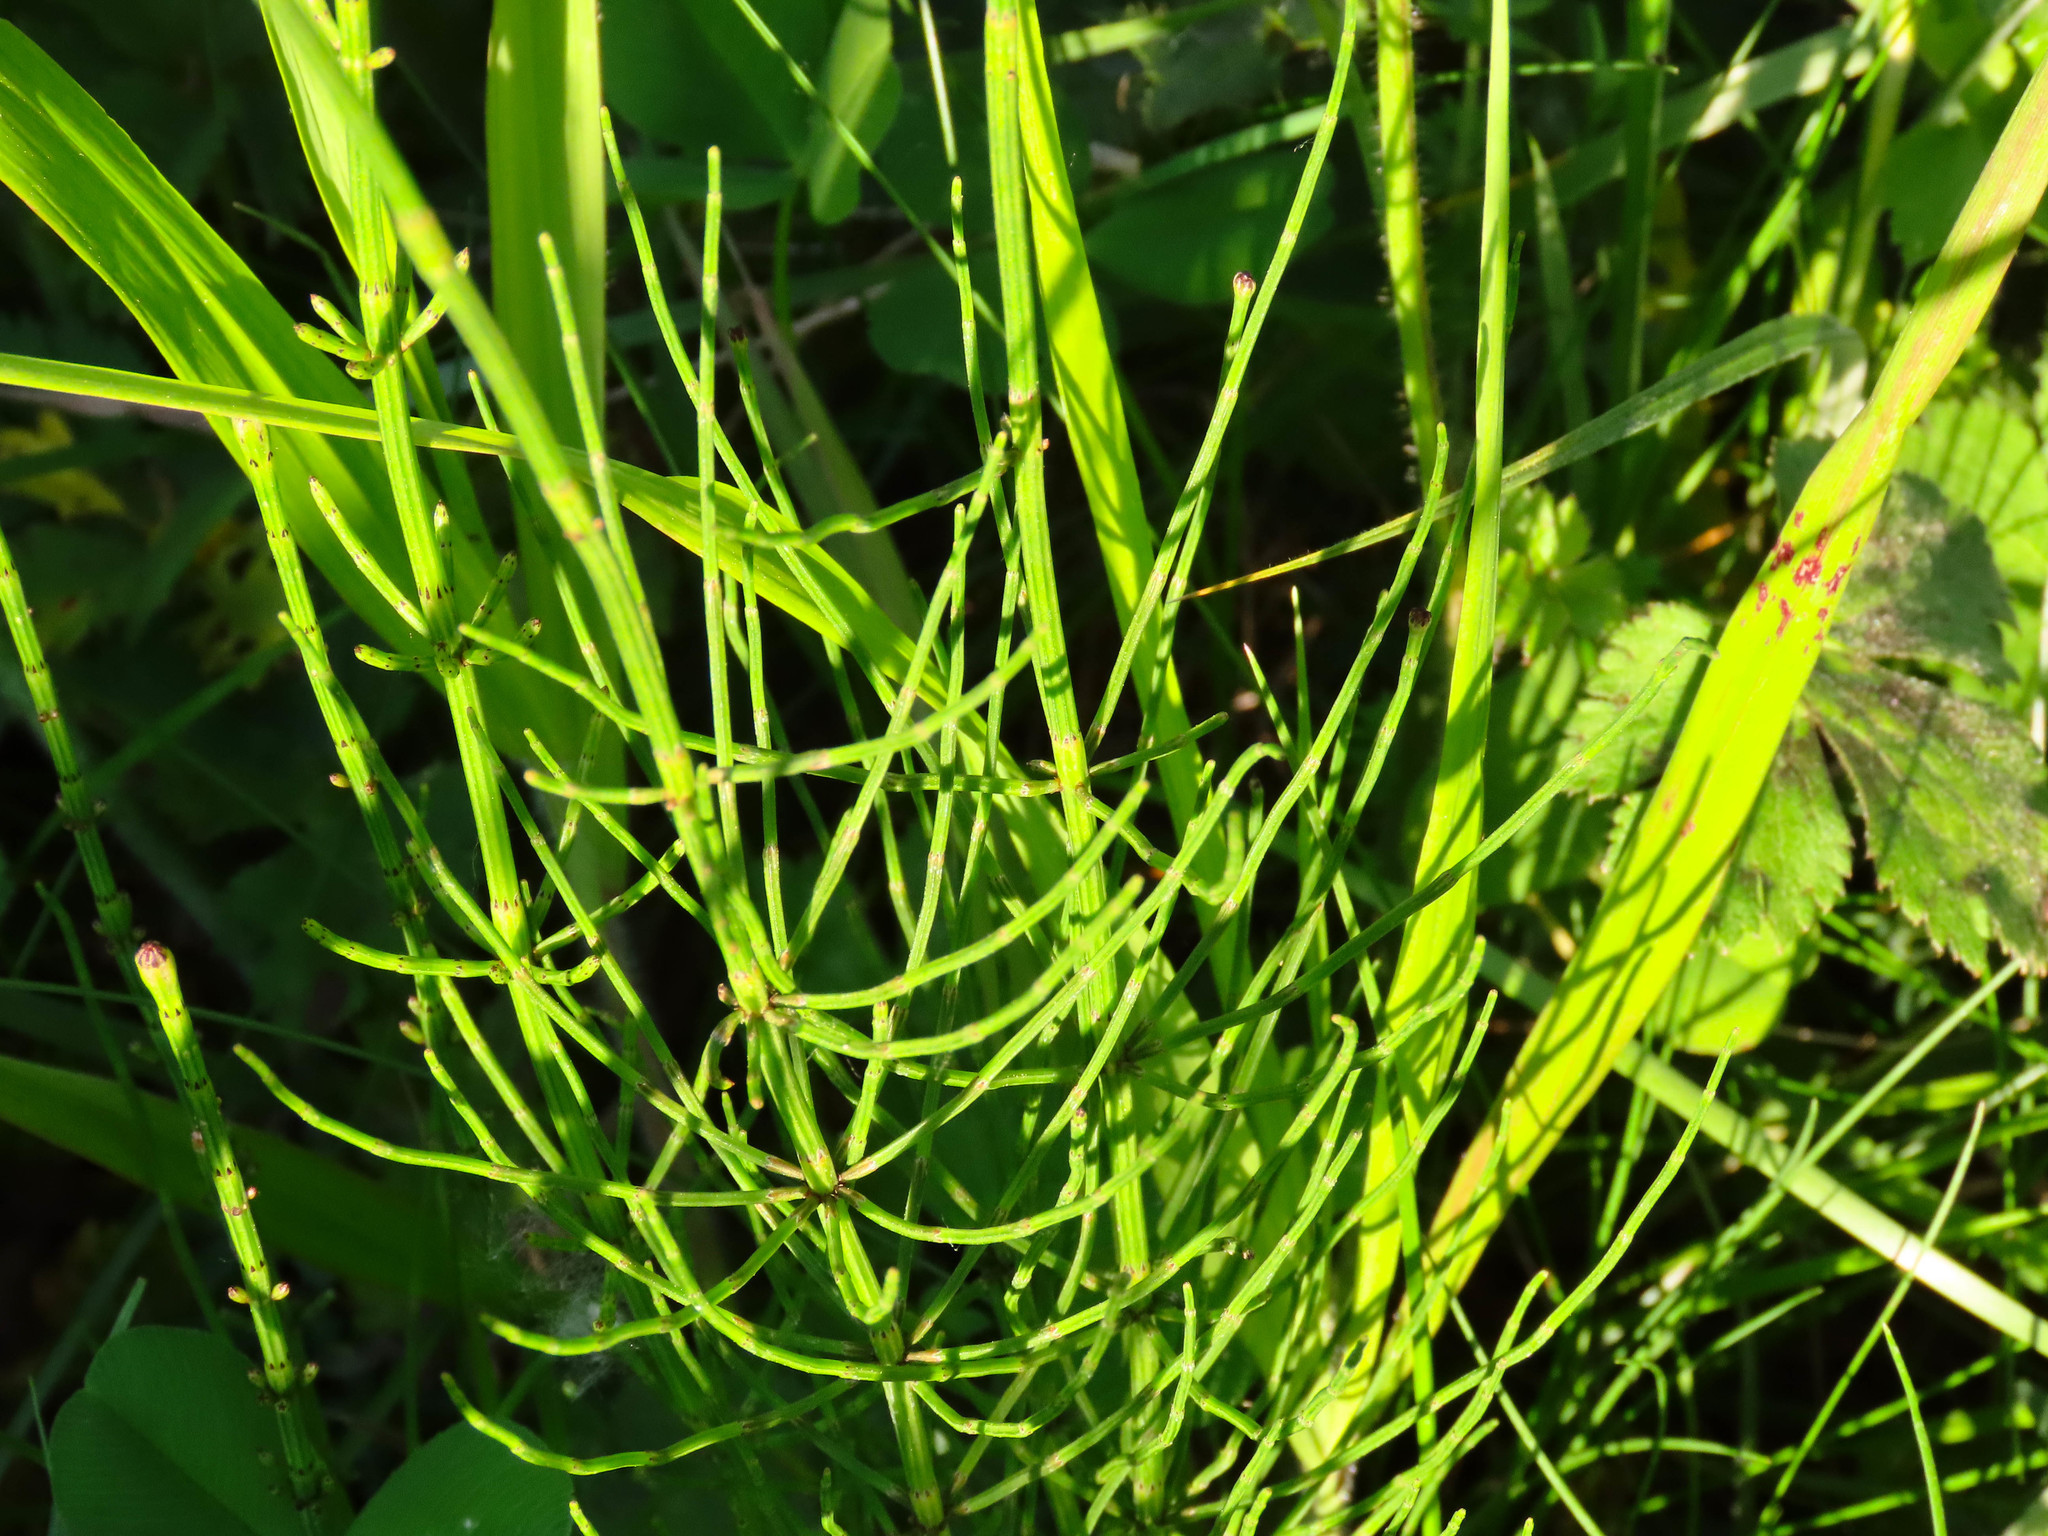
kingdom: Plantae
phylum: Tracheophyta
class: Polypodiopsida
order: Equisetales
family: Equisetaceae
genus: Equisetum
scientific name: Equisetum palustre
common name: Marsh horsetail
